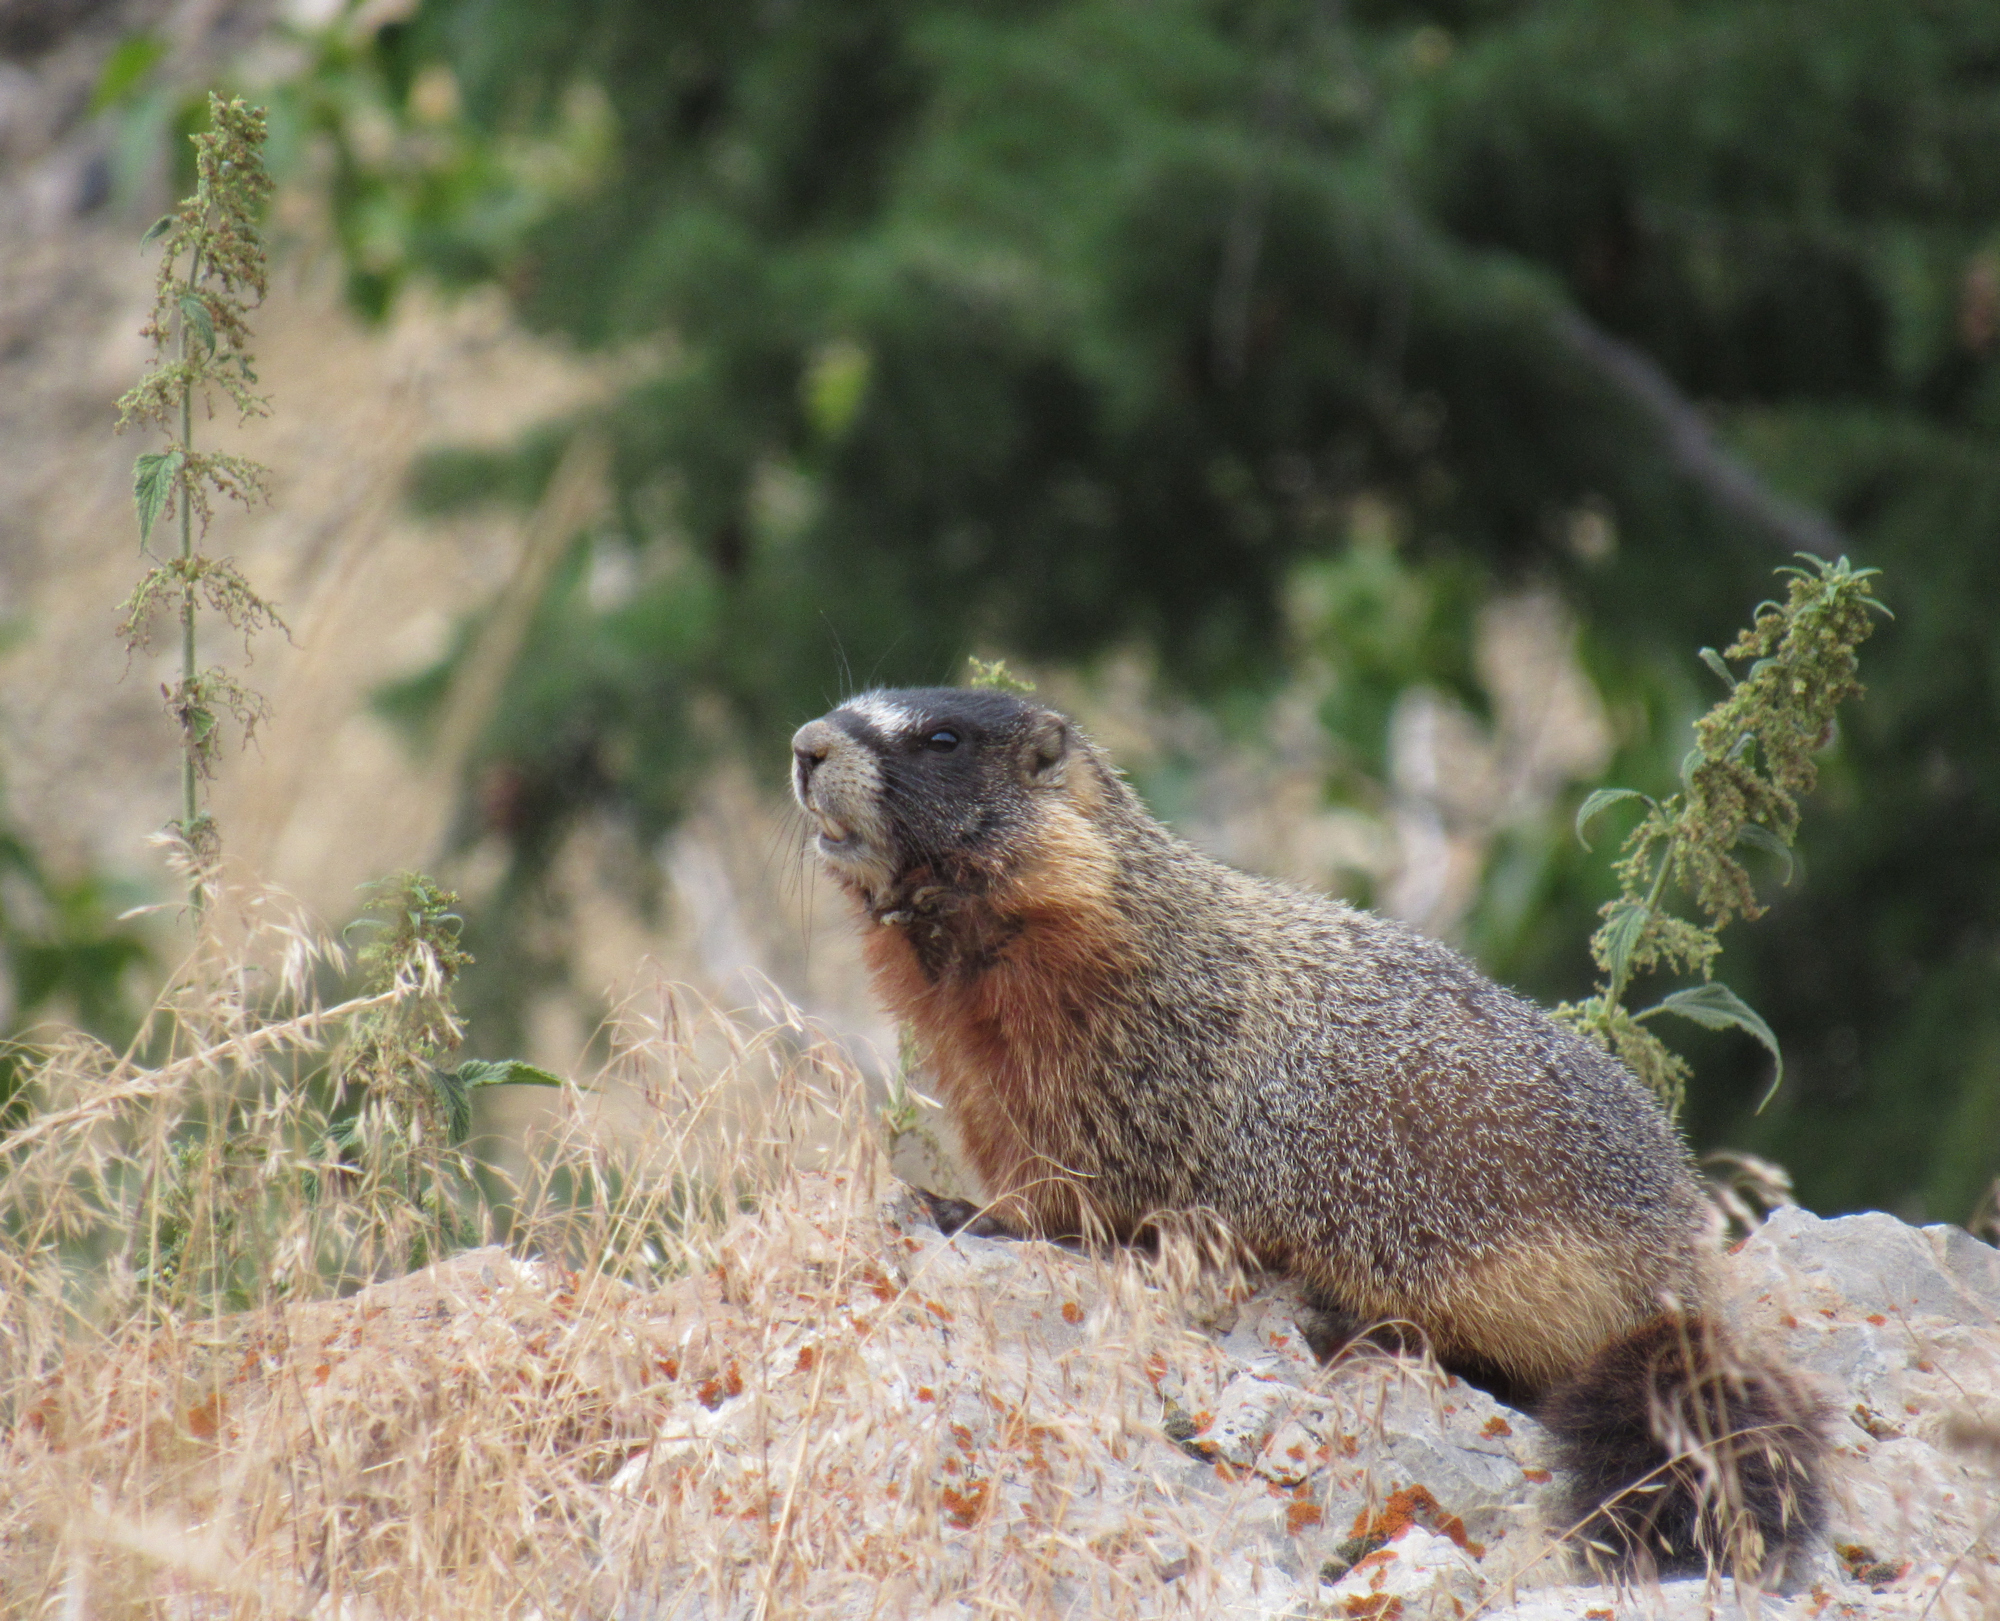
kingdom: Animalia
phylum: Chordata
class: Mammalia
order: Rodentia
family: Sciuridae
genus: Marmota
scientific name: Marmota flaviventris
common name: Yellow-bellied marmot
